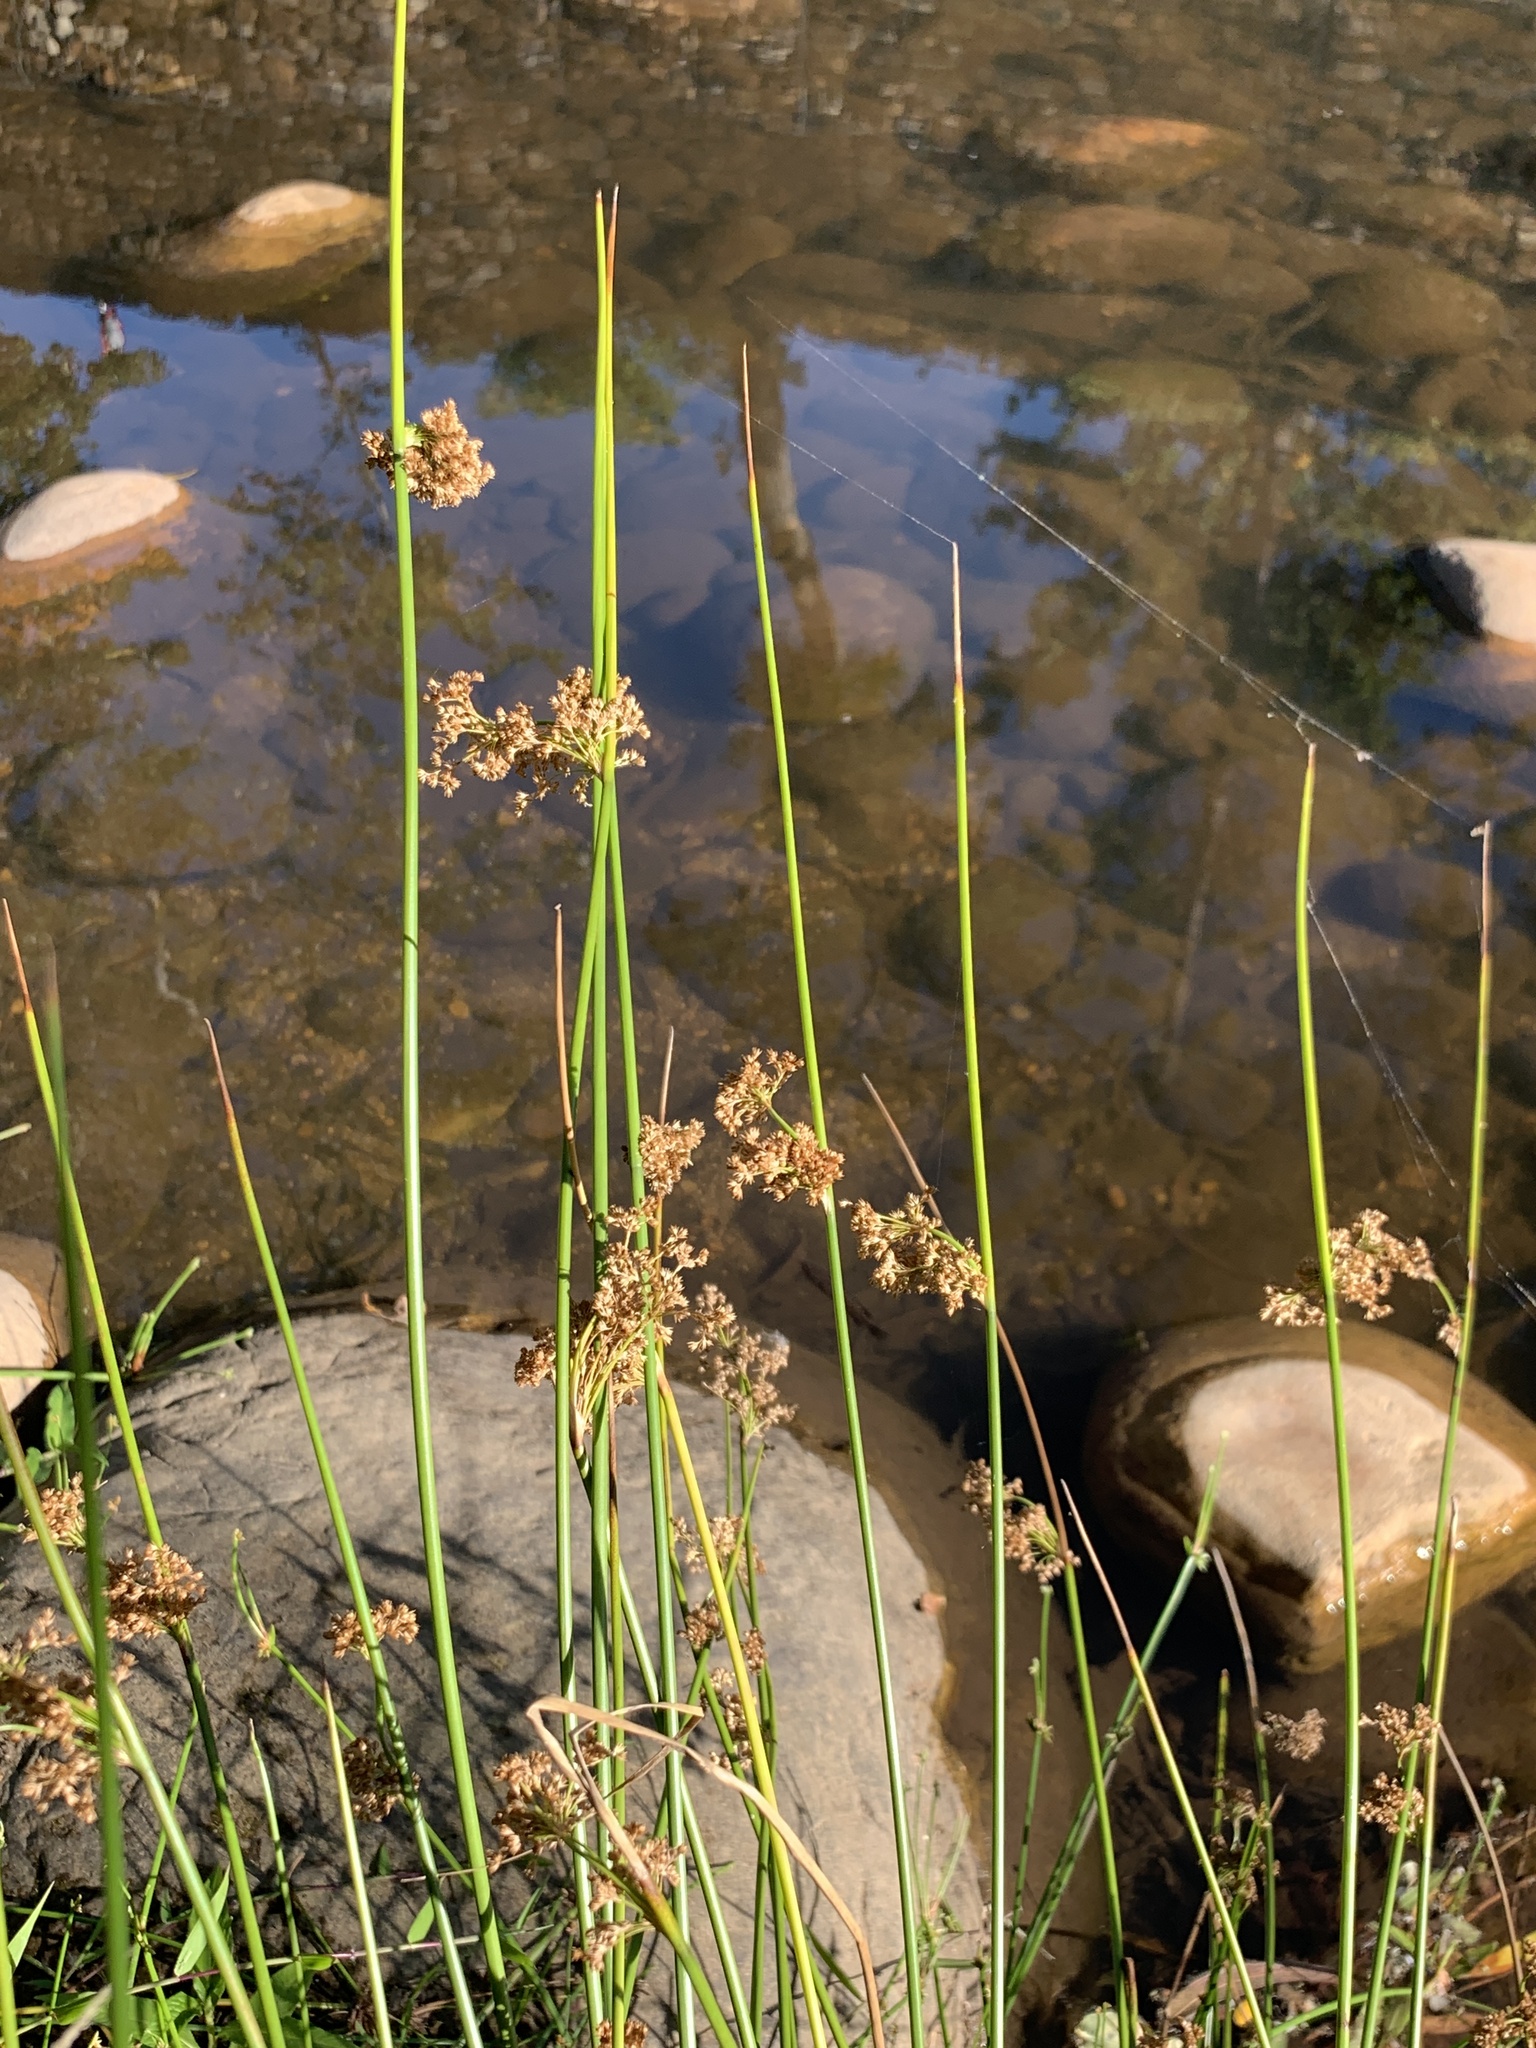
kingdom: Plantae
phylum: Tracheophyta
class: Liliopsida
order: Poales
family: Juncaceae
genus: Juncus
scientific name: Juncus effusus
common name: Soft rush
